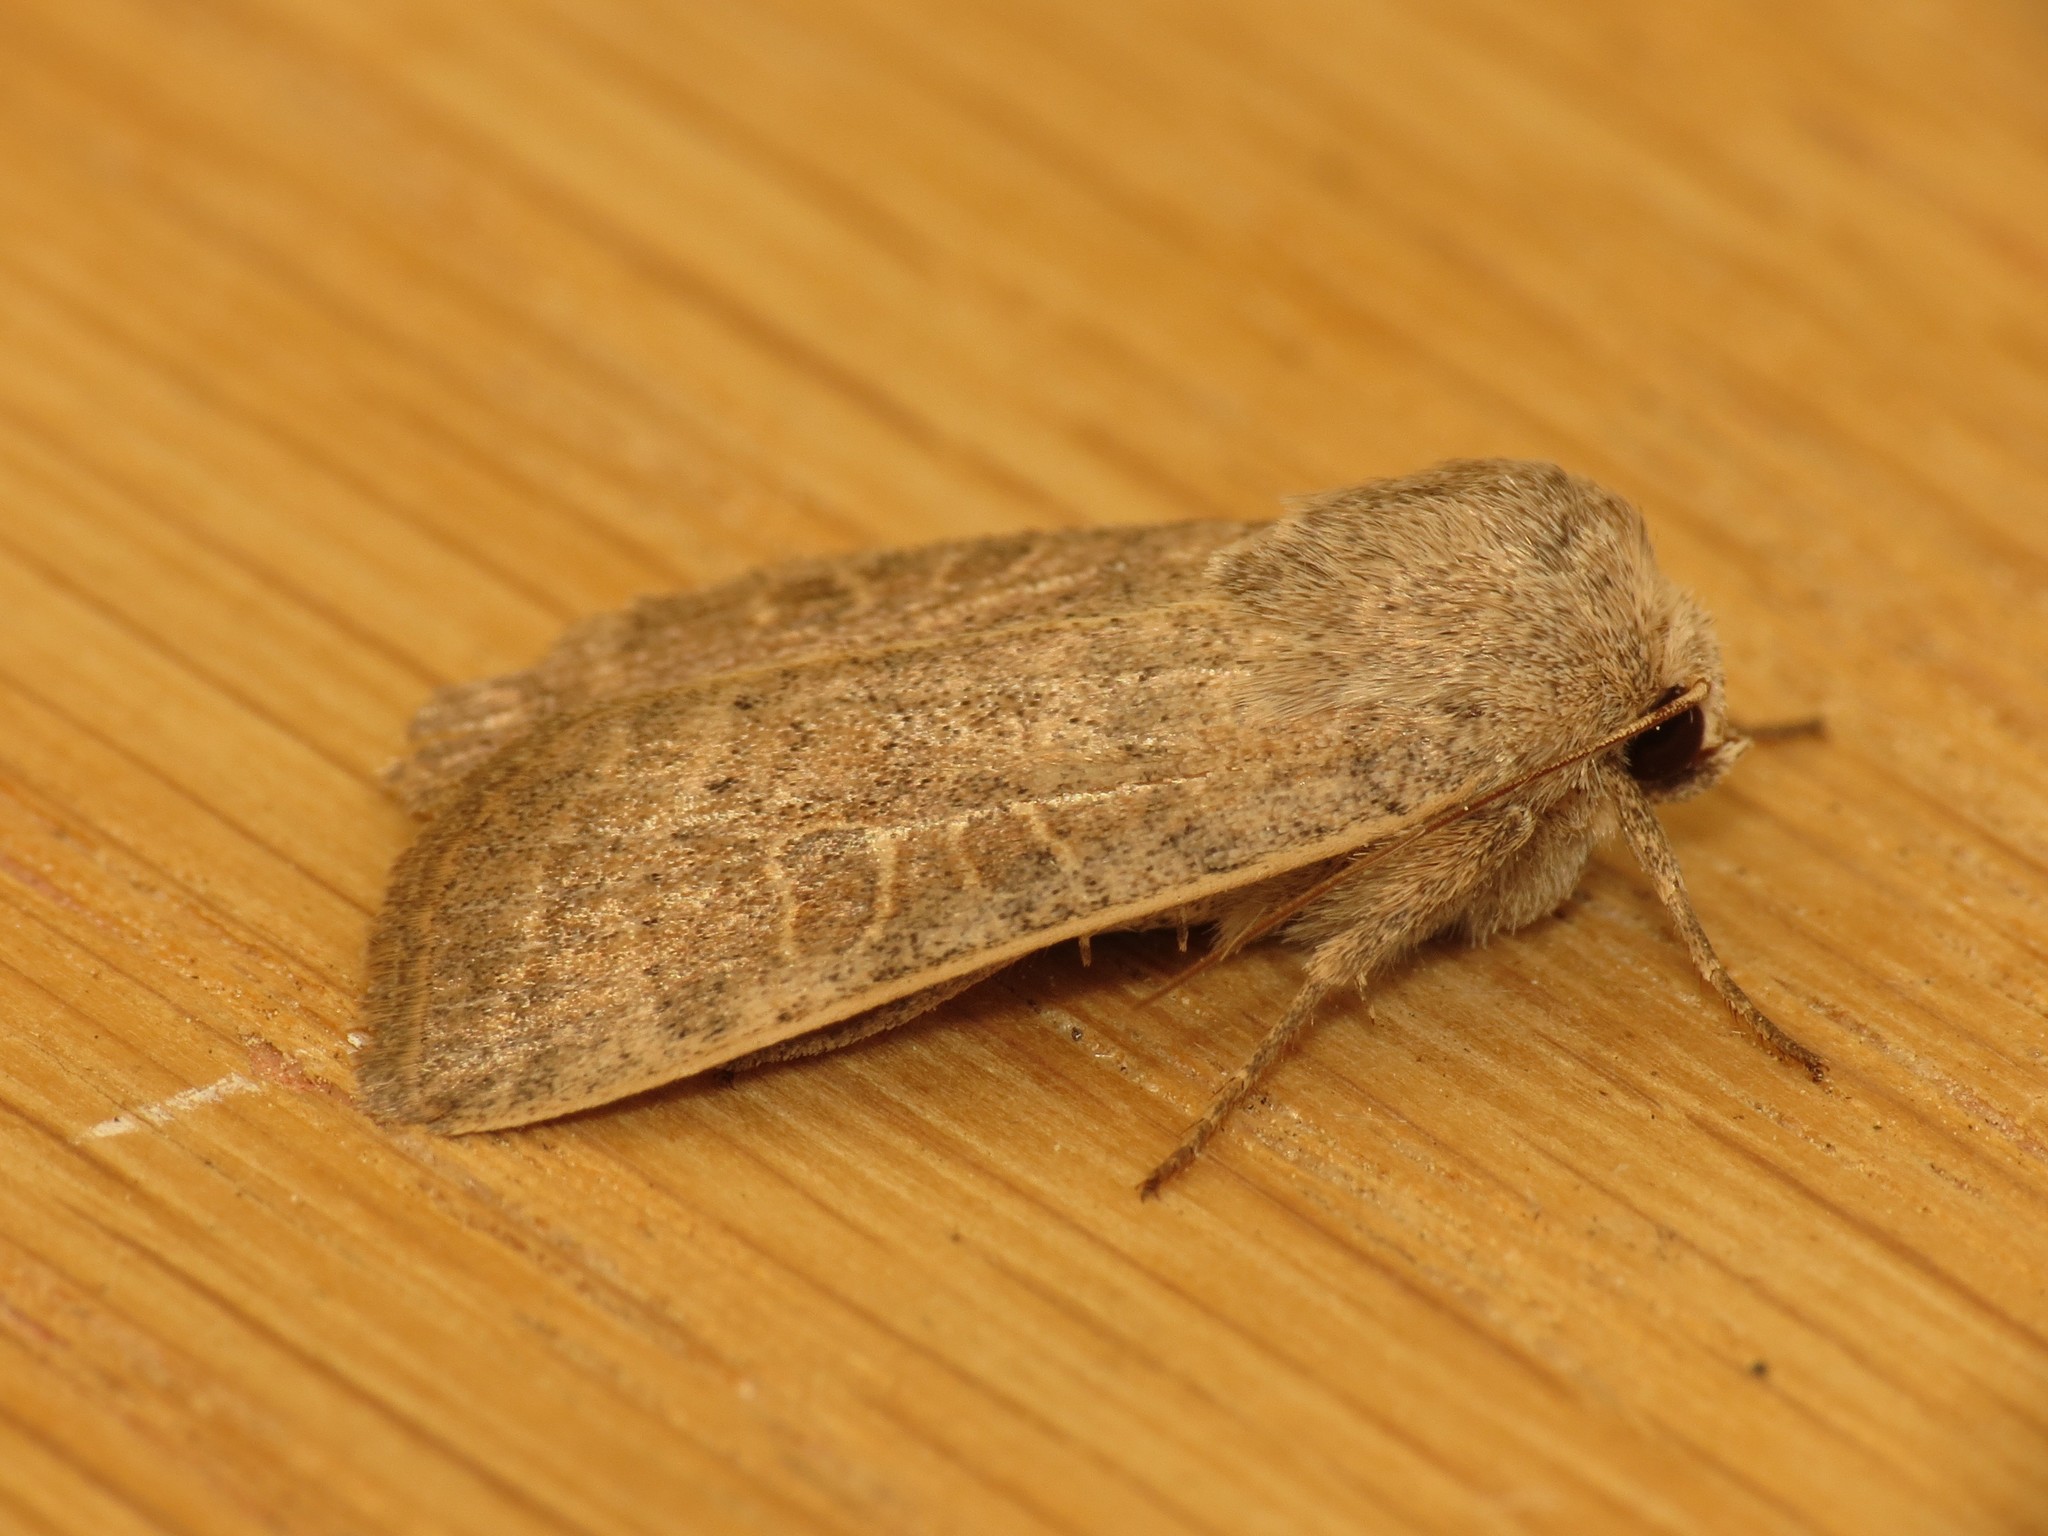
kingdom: Animalia
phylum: Arthropoda
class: Insecta
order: Lepidoptera
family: Noctuidae
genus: Hoplodrina
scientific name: Hoplodrina ambigua
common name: Vine's rustic
